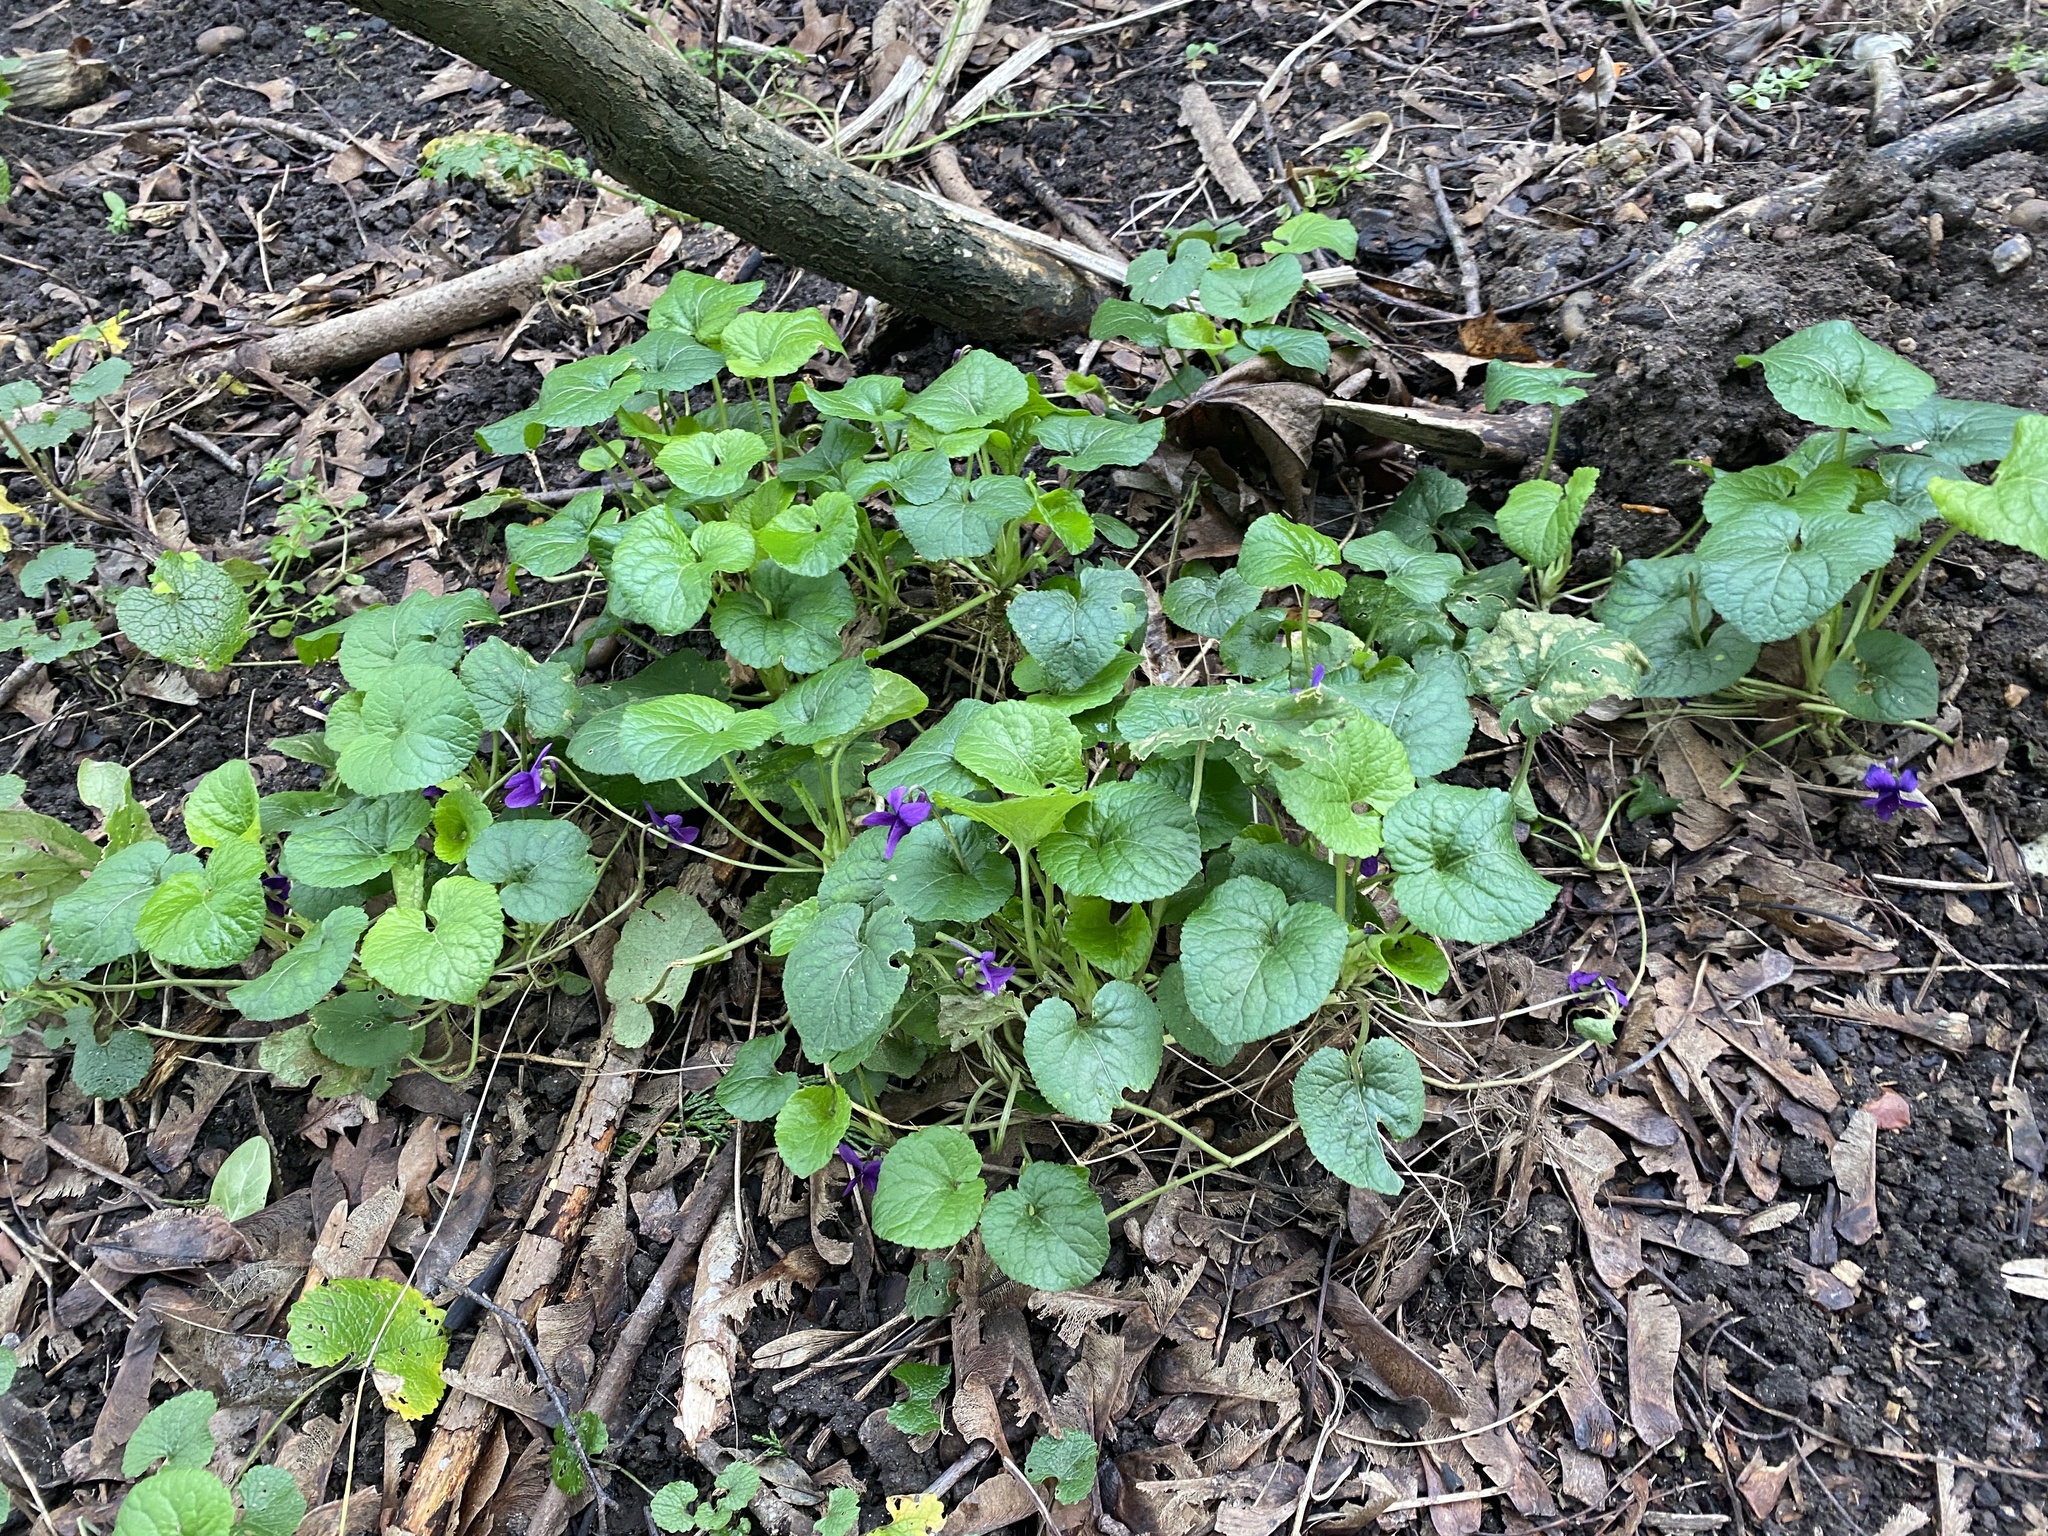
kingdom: Plantae
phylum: Tracheophyta
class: Magnoliopsida
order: Malpighiales
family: Violaceae
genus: Viola
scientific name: Viola odorata
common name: Sweet violet
